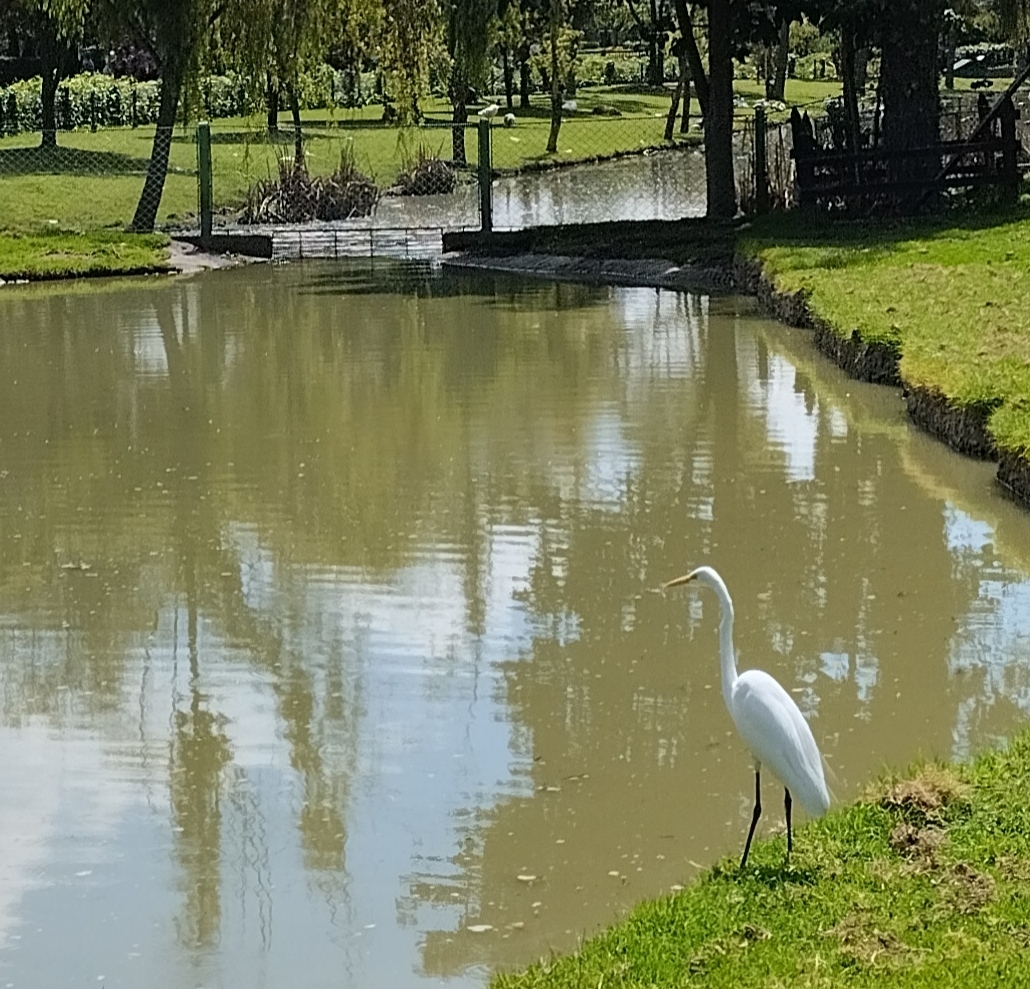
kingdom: Animalia
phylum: Chordata
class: Aves
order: Pelecaniformes
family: Ardeidae
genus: Ardea
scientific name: Ardea alba
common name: Great egret
